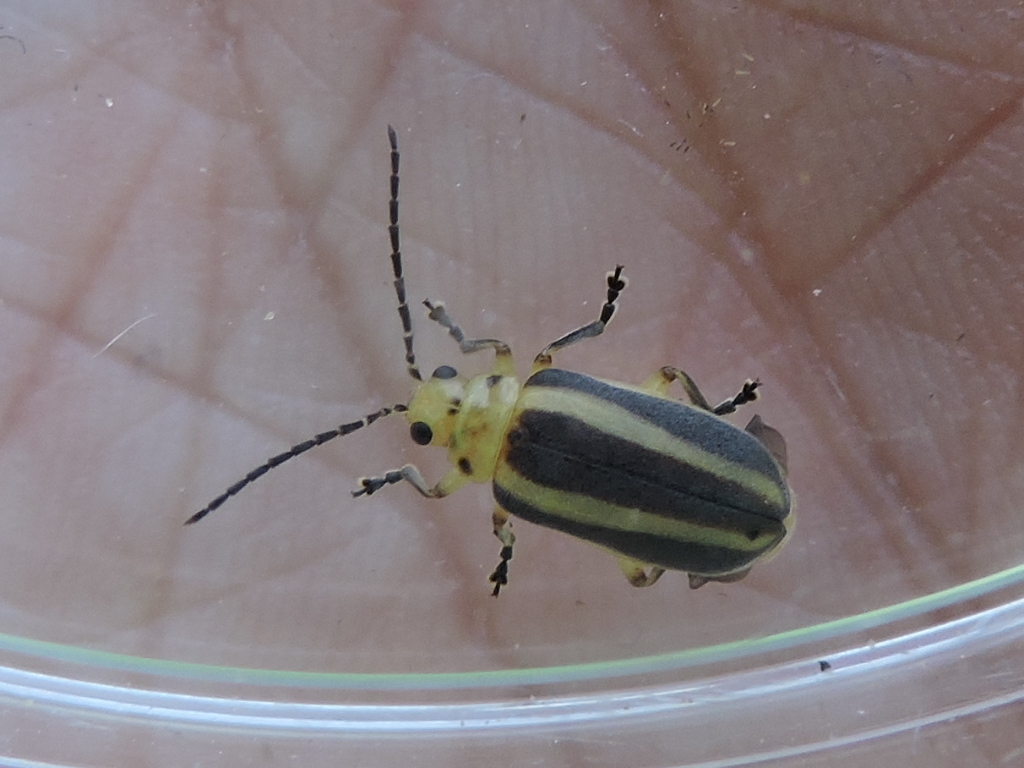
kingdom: Animalia
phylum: Arthropoda
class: Insecta
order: Coleoptera
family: Chrysomelidae
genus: Derospidea
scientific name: Derospidea brevicollis
